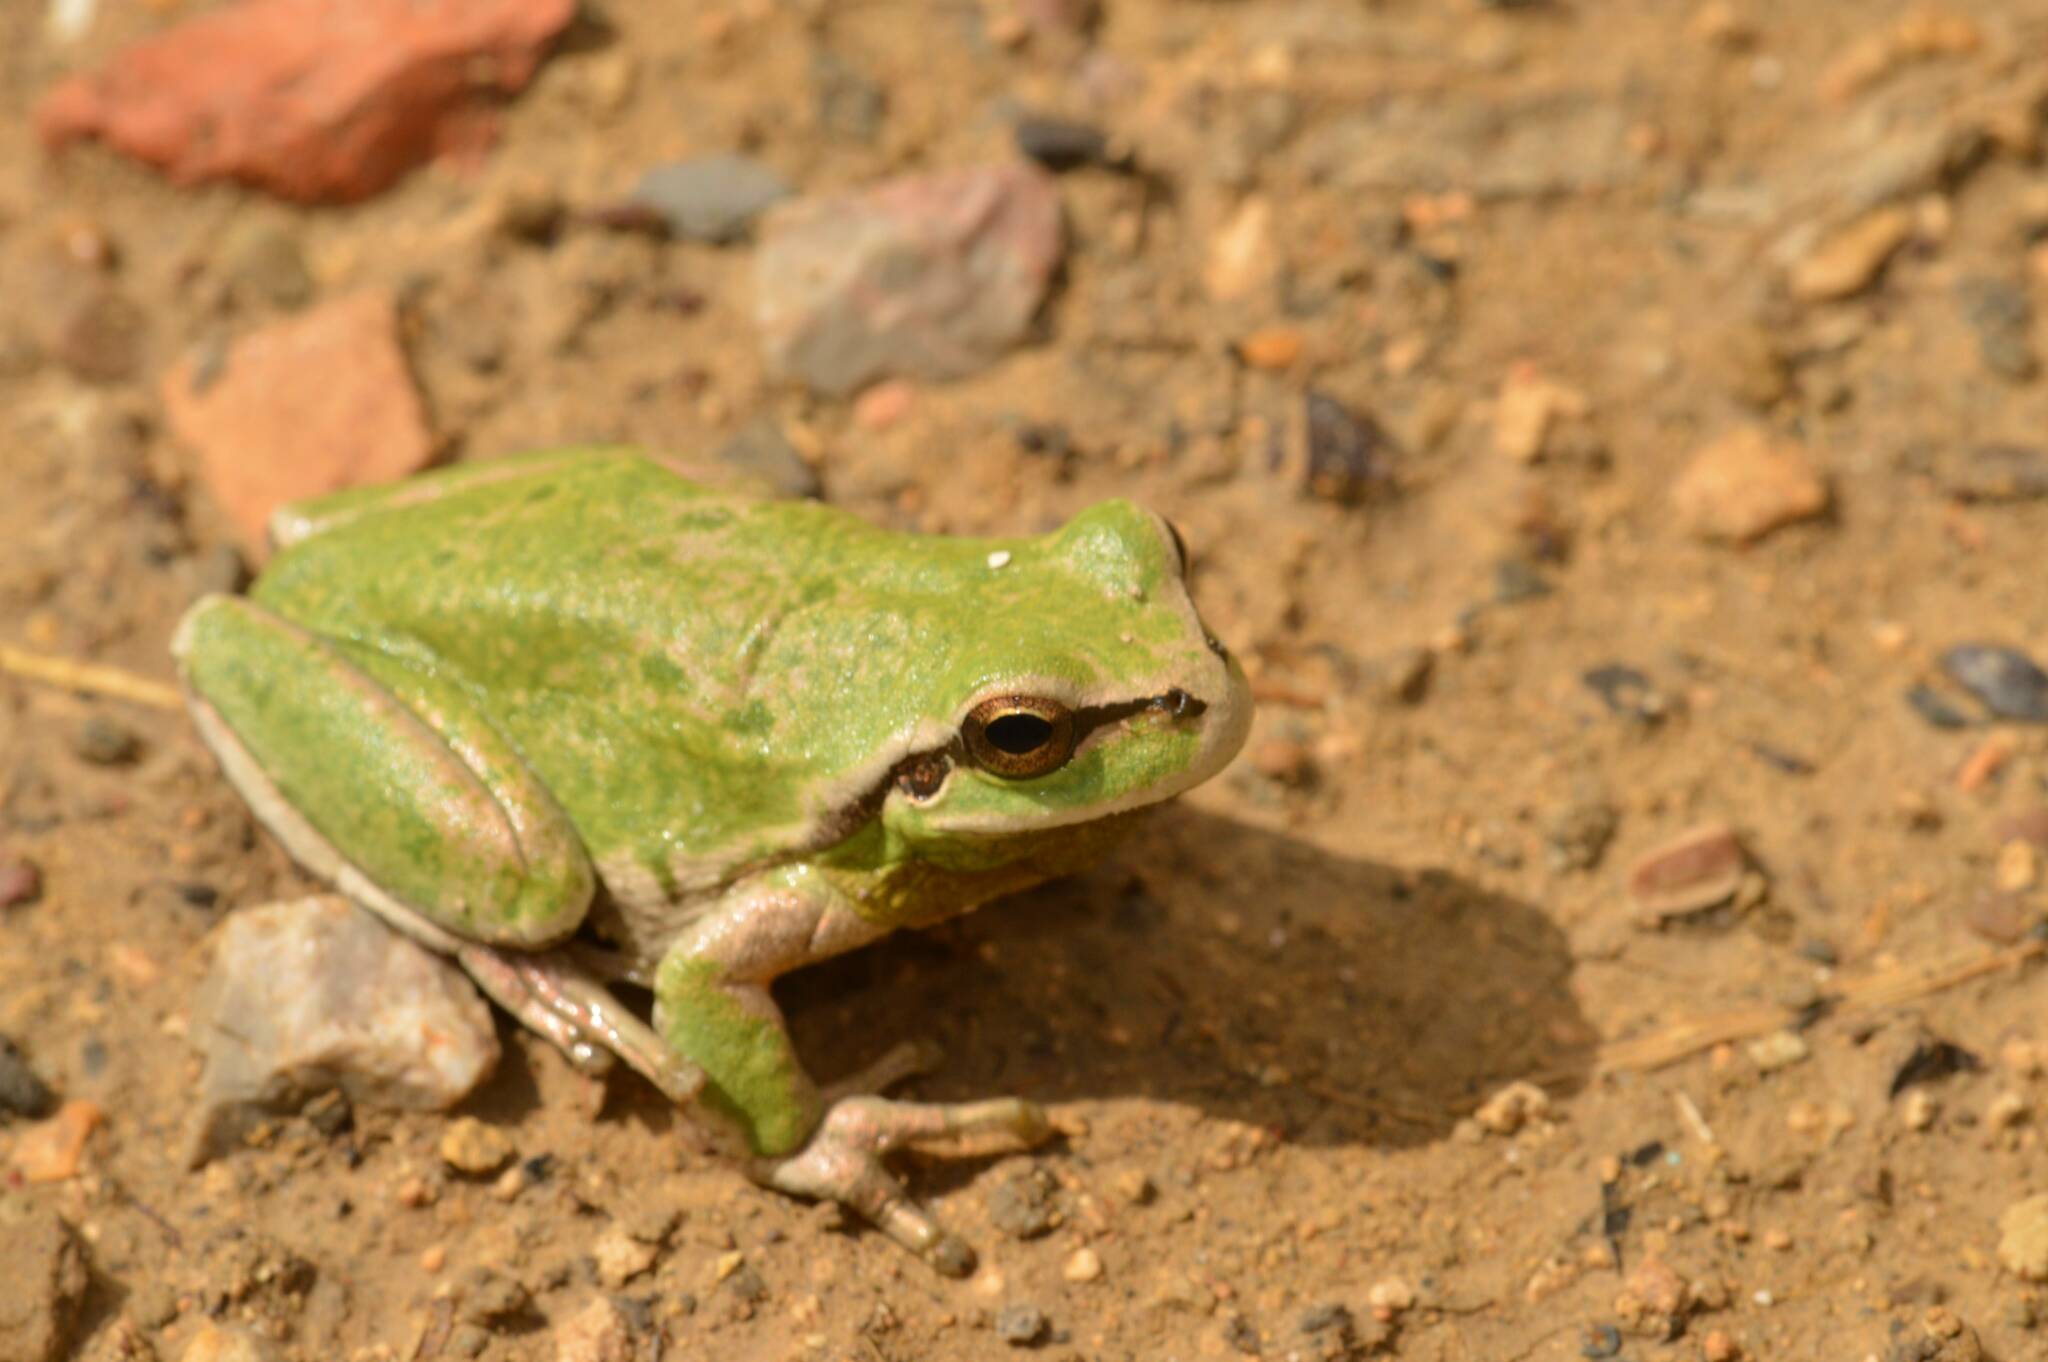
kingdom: Animalia
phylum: Chordata
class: Amphibia
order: Anura
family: Hylidae
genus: Hyla
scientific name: Hyla meridionalis
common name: Stripeless tree frog
